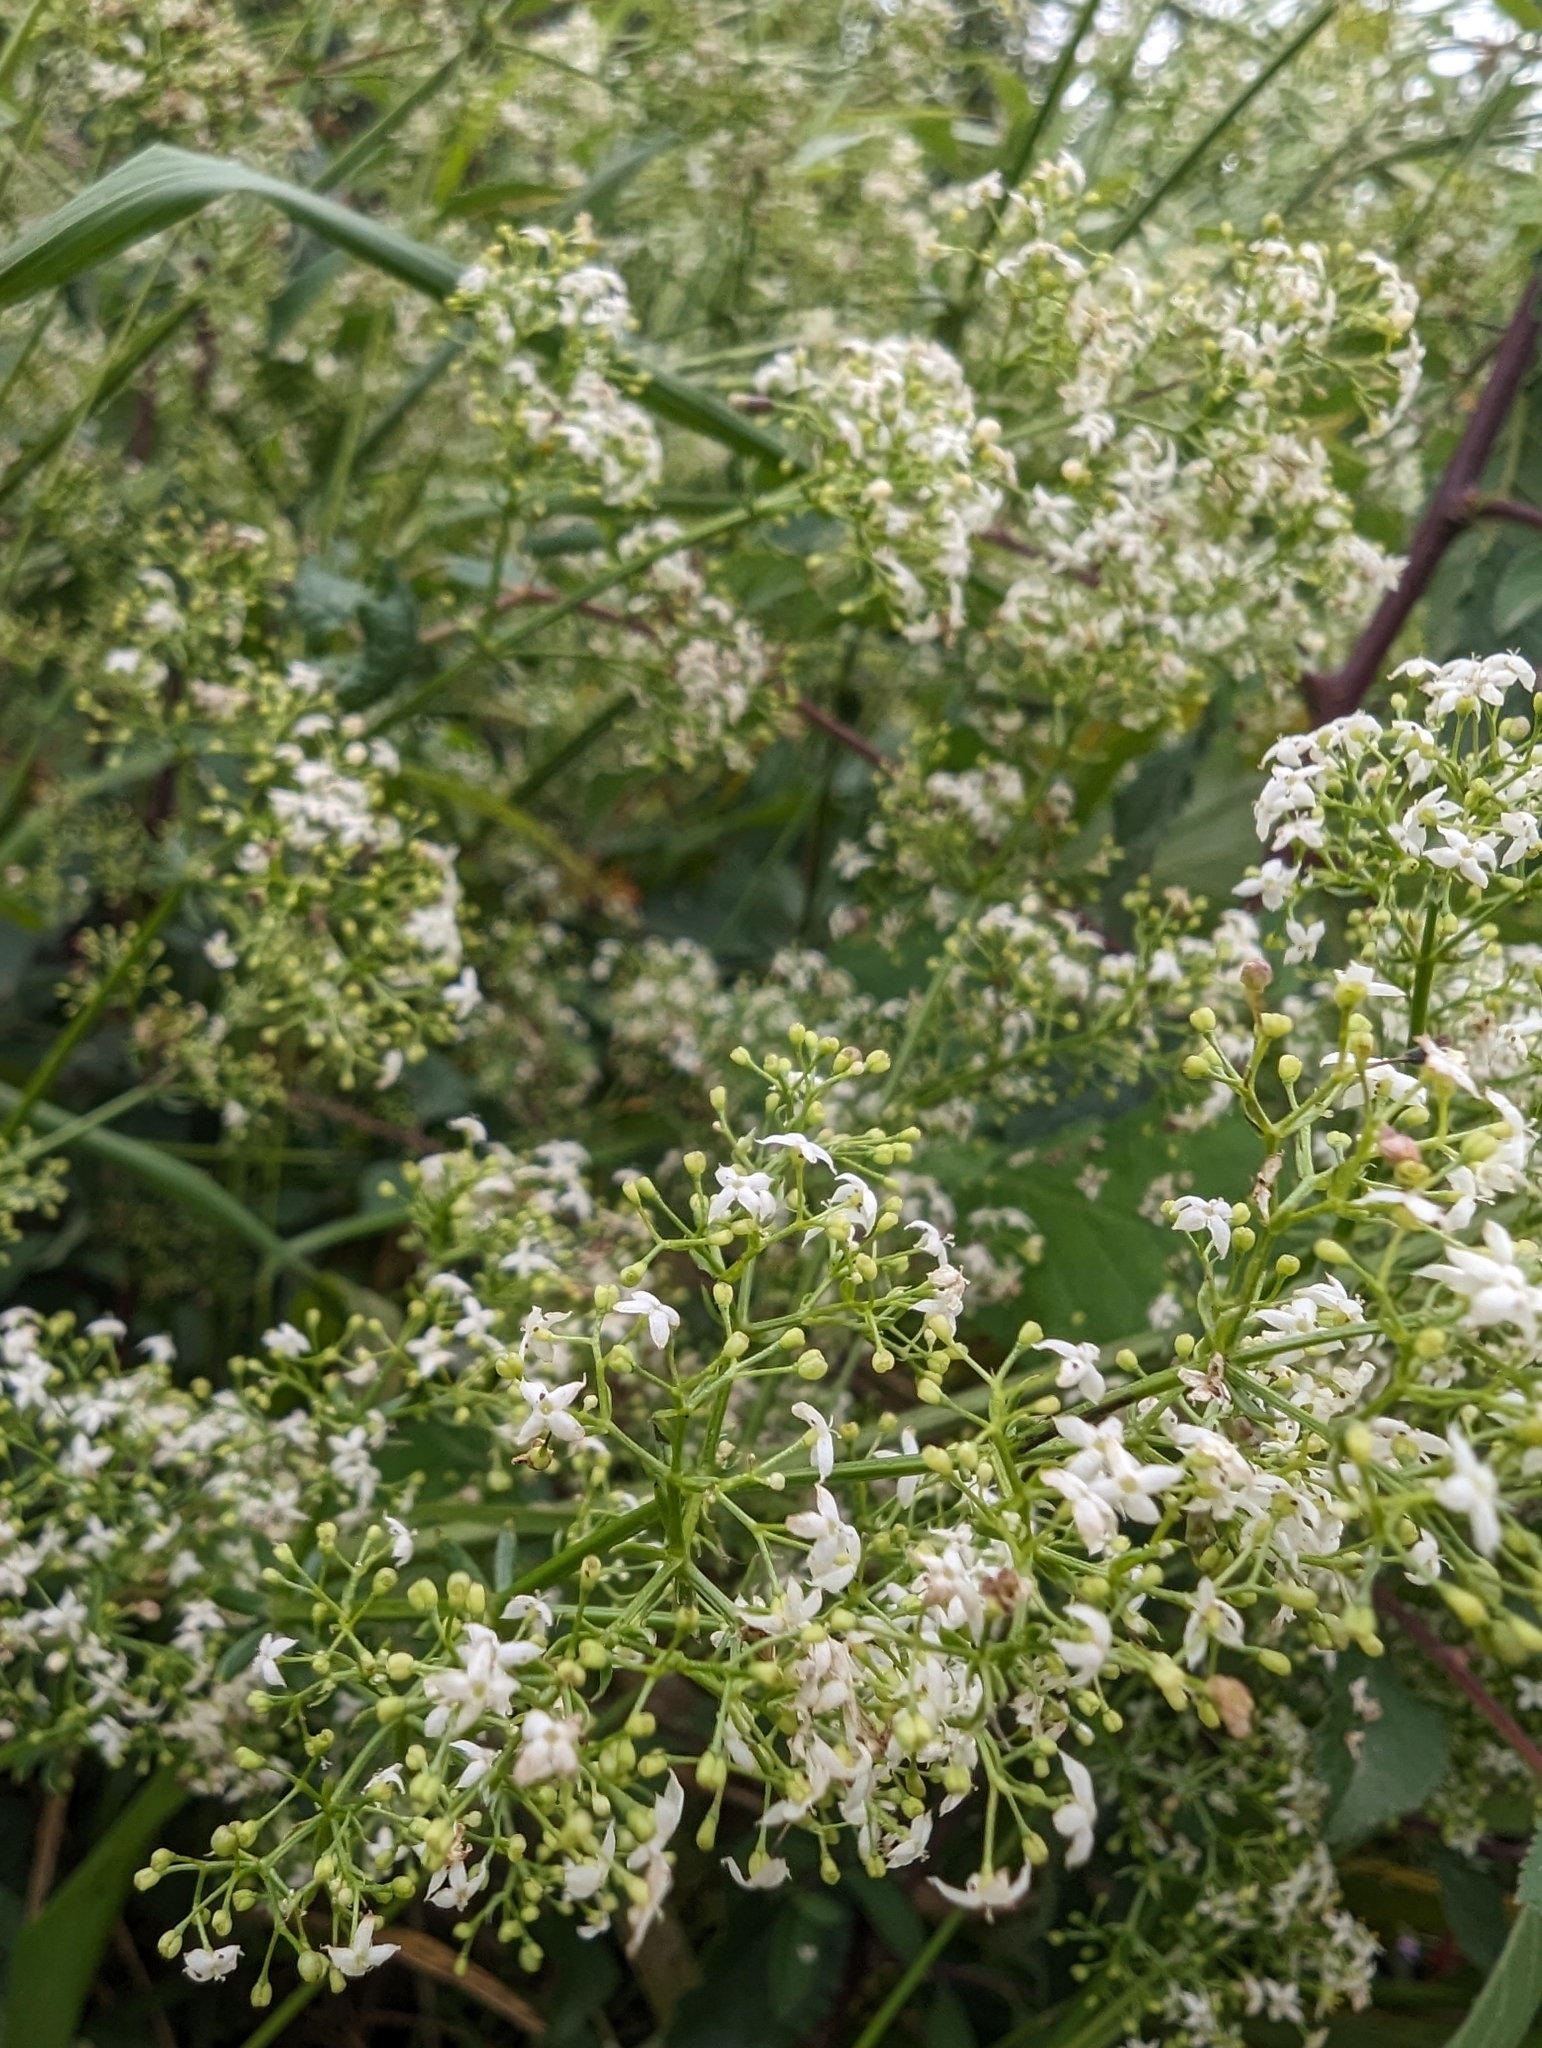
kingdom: Plantae
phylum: Tracheophyta
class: Magnoliopsida
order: Gentianales
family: Rubiaceae
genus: Galium
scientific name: Galium mollugo
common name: Hedge bedstraw
